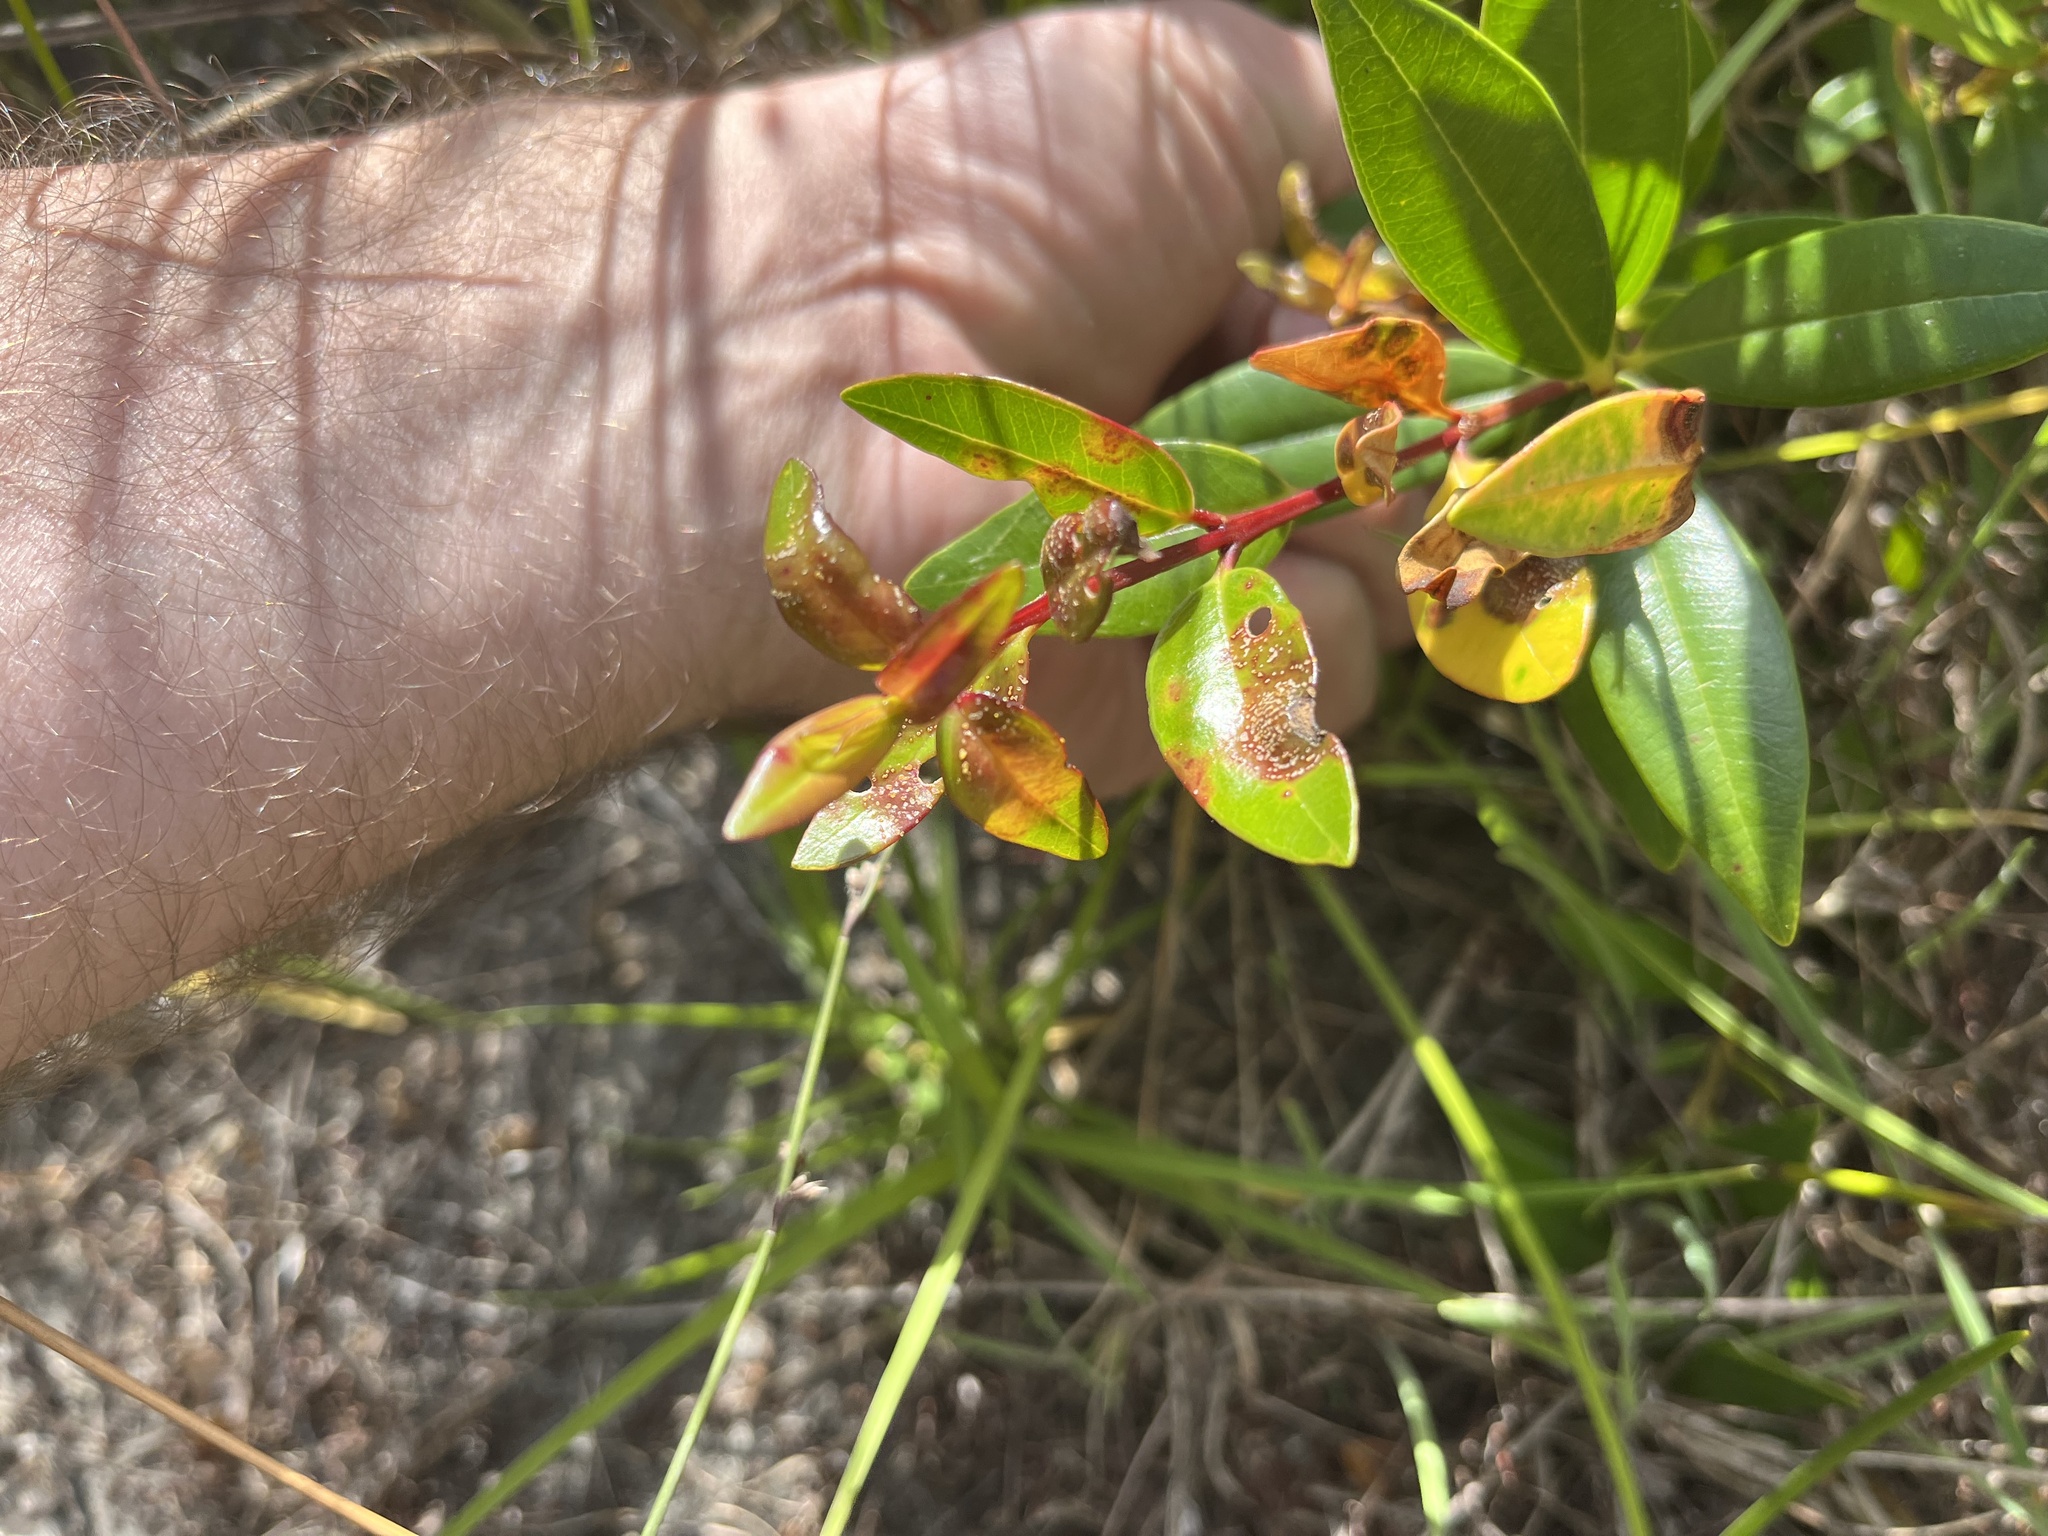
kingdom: Fungi
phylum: Basidiomycota
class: Pucciniomycetes
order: Pucciniales
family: Sphaerophragmiaceae
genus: Austropuccinia
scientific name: Austropuccinia psidii
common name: Myrtle rust
